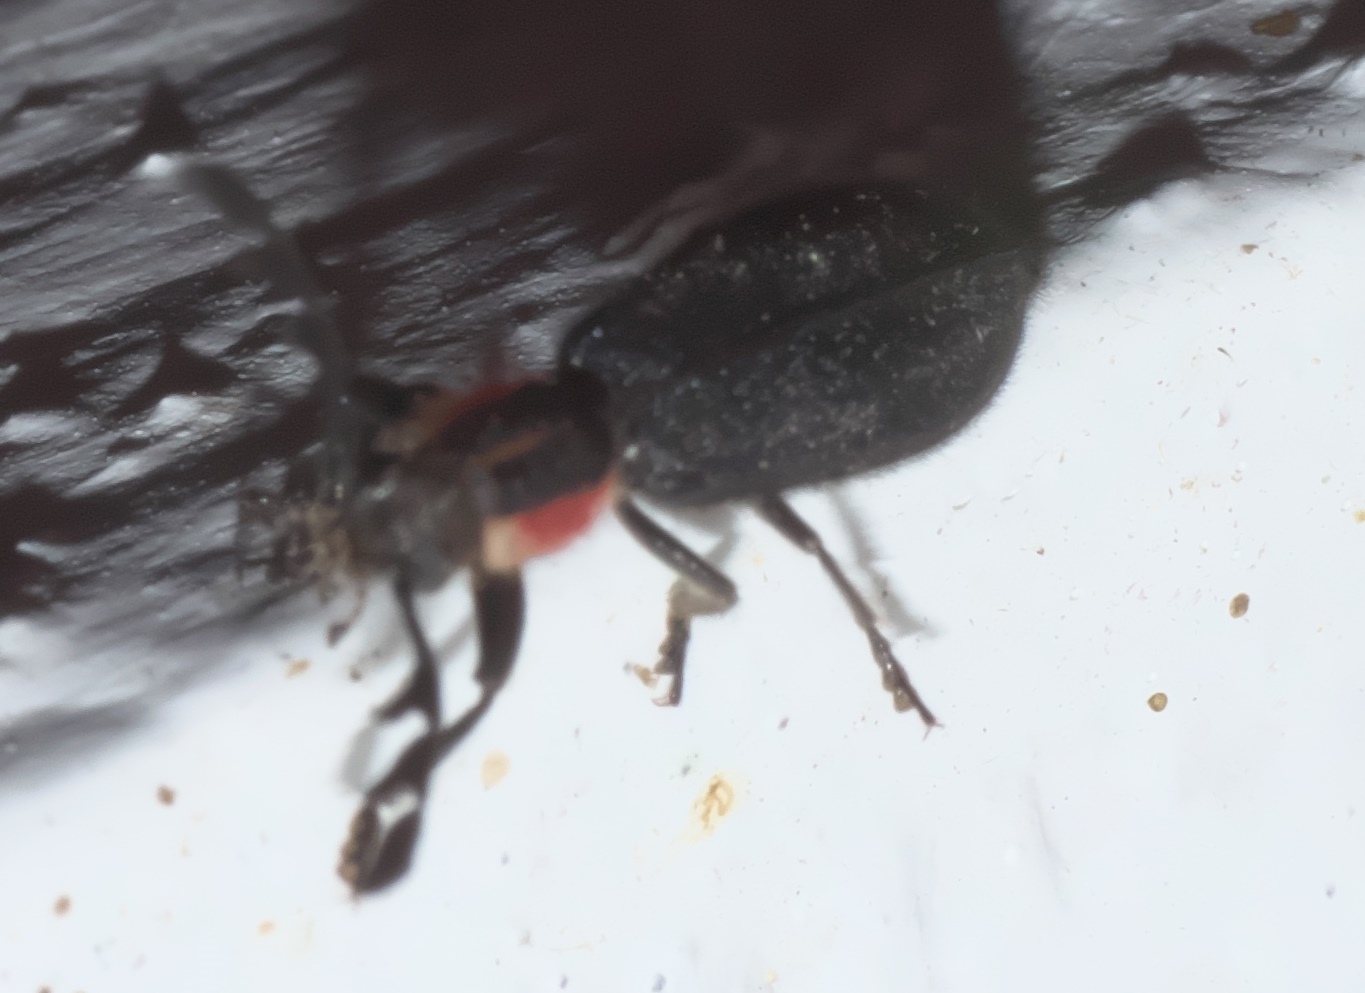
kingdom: Animalia
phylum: Arthropoda
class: Insecta
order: Coleoptera
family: Cleridae
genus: Chariessa
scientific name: Chariessa pilosa
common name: Pilose checkered beetle
